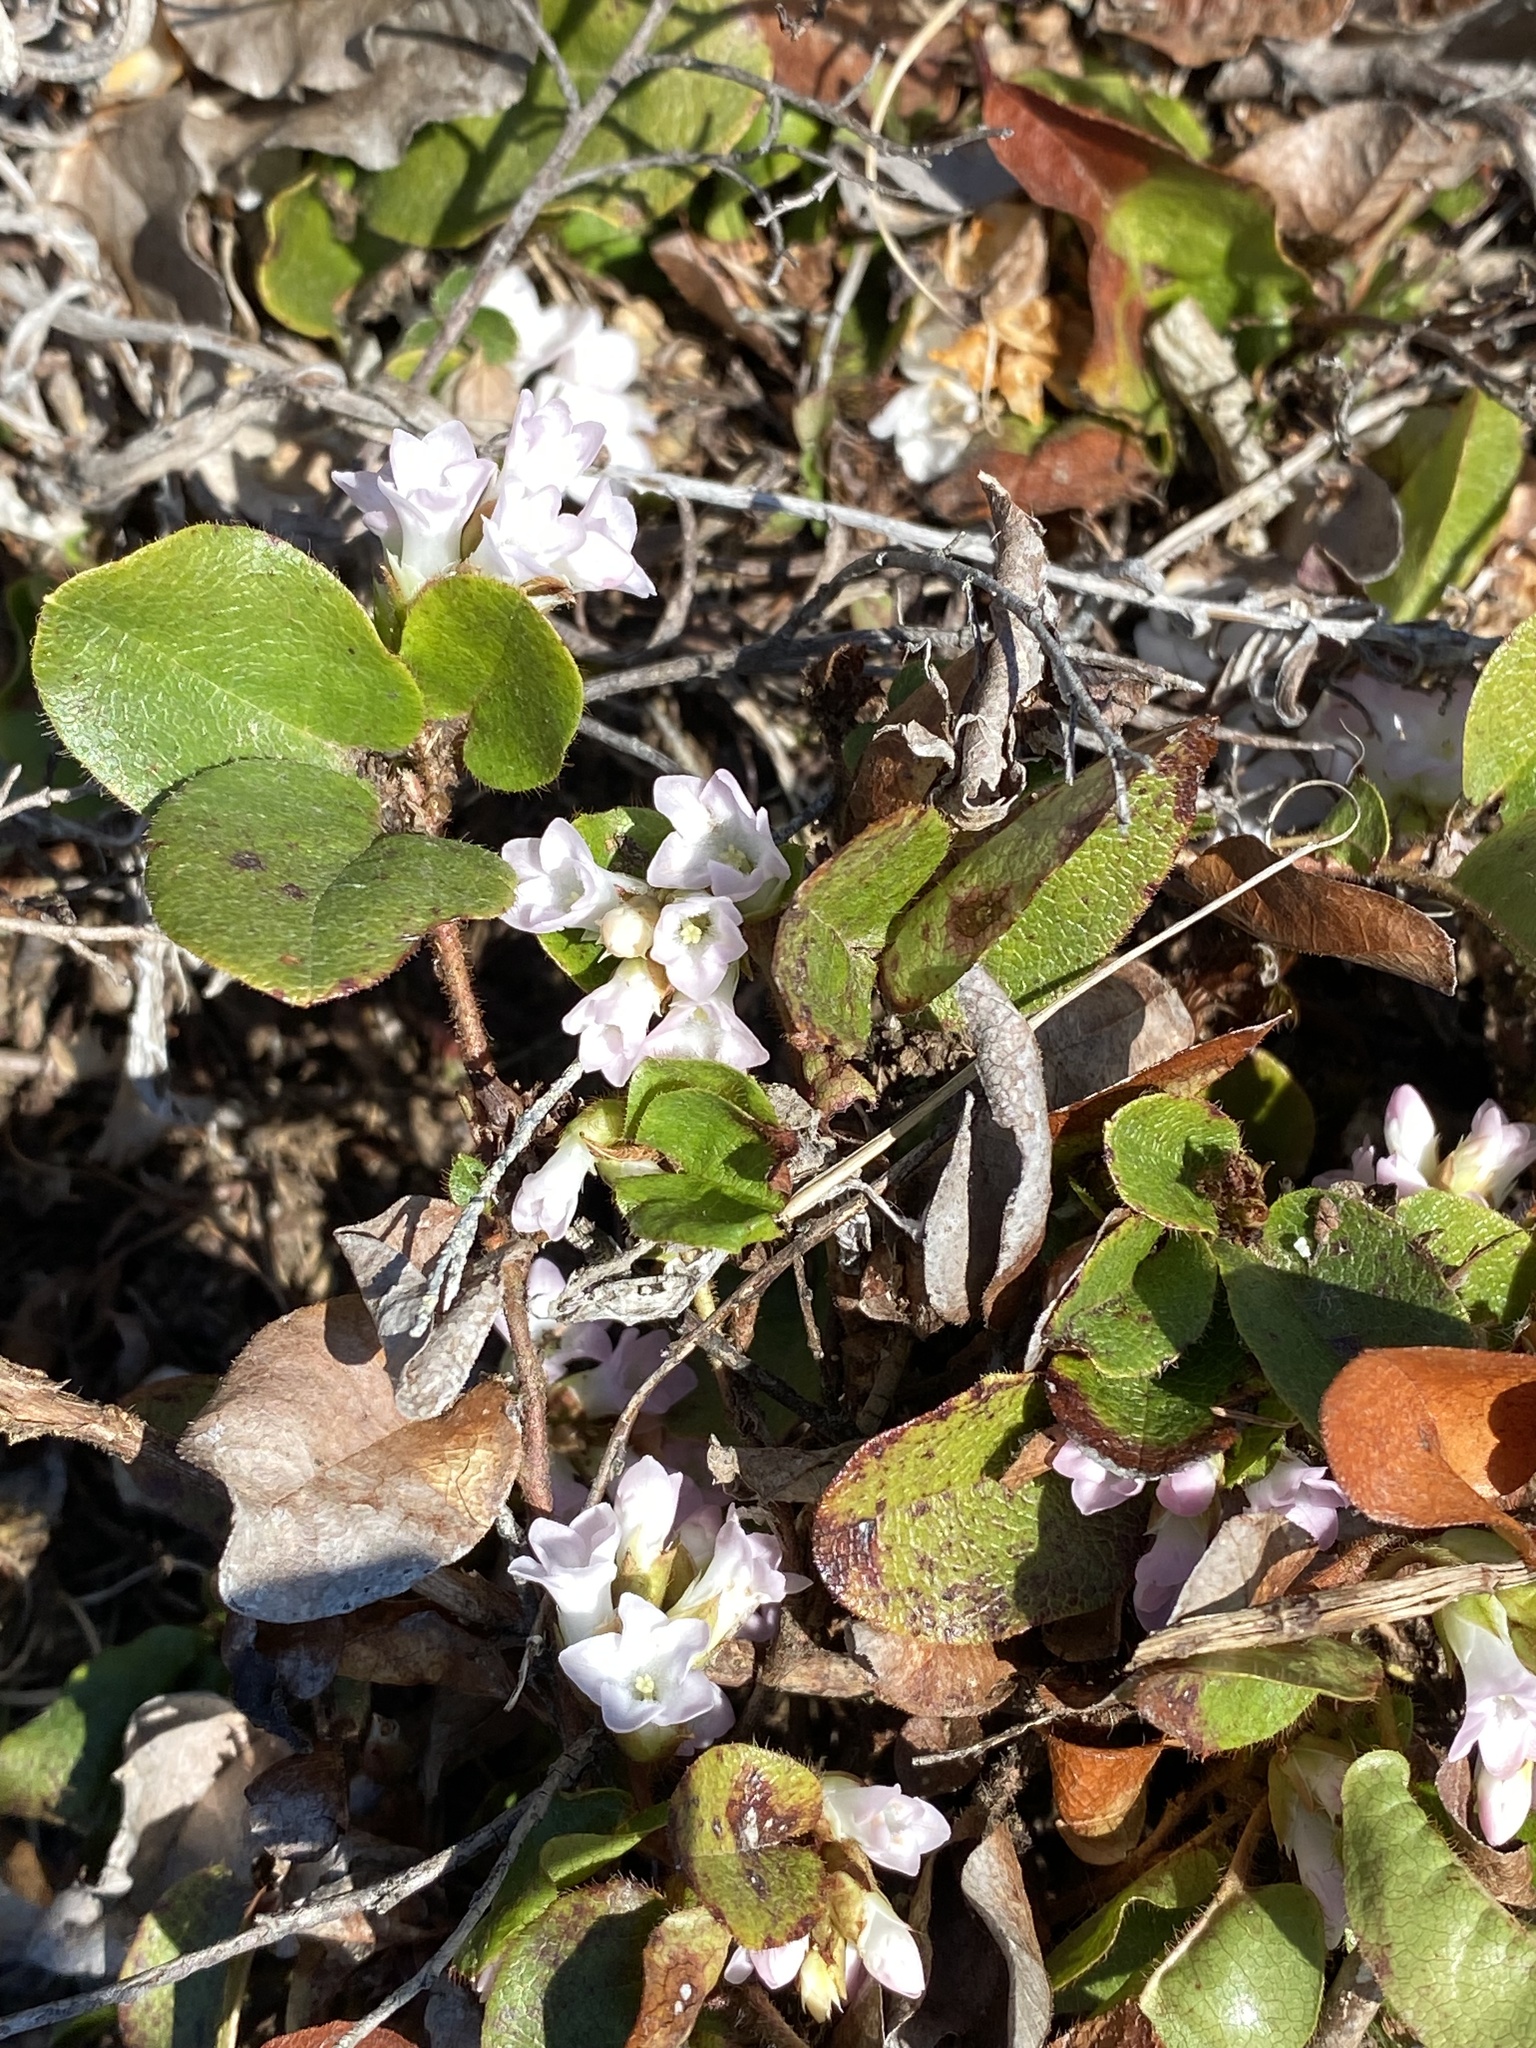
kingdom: Plantae
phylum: Tracheophyta
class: Magnoliopsida
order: Ericales
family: Ericaceae
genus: Epigaea
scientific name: Epigaea repens
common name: Gravelroot
